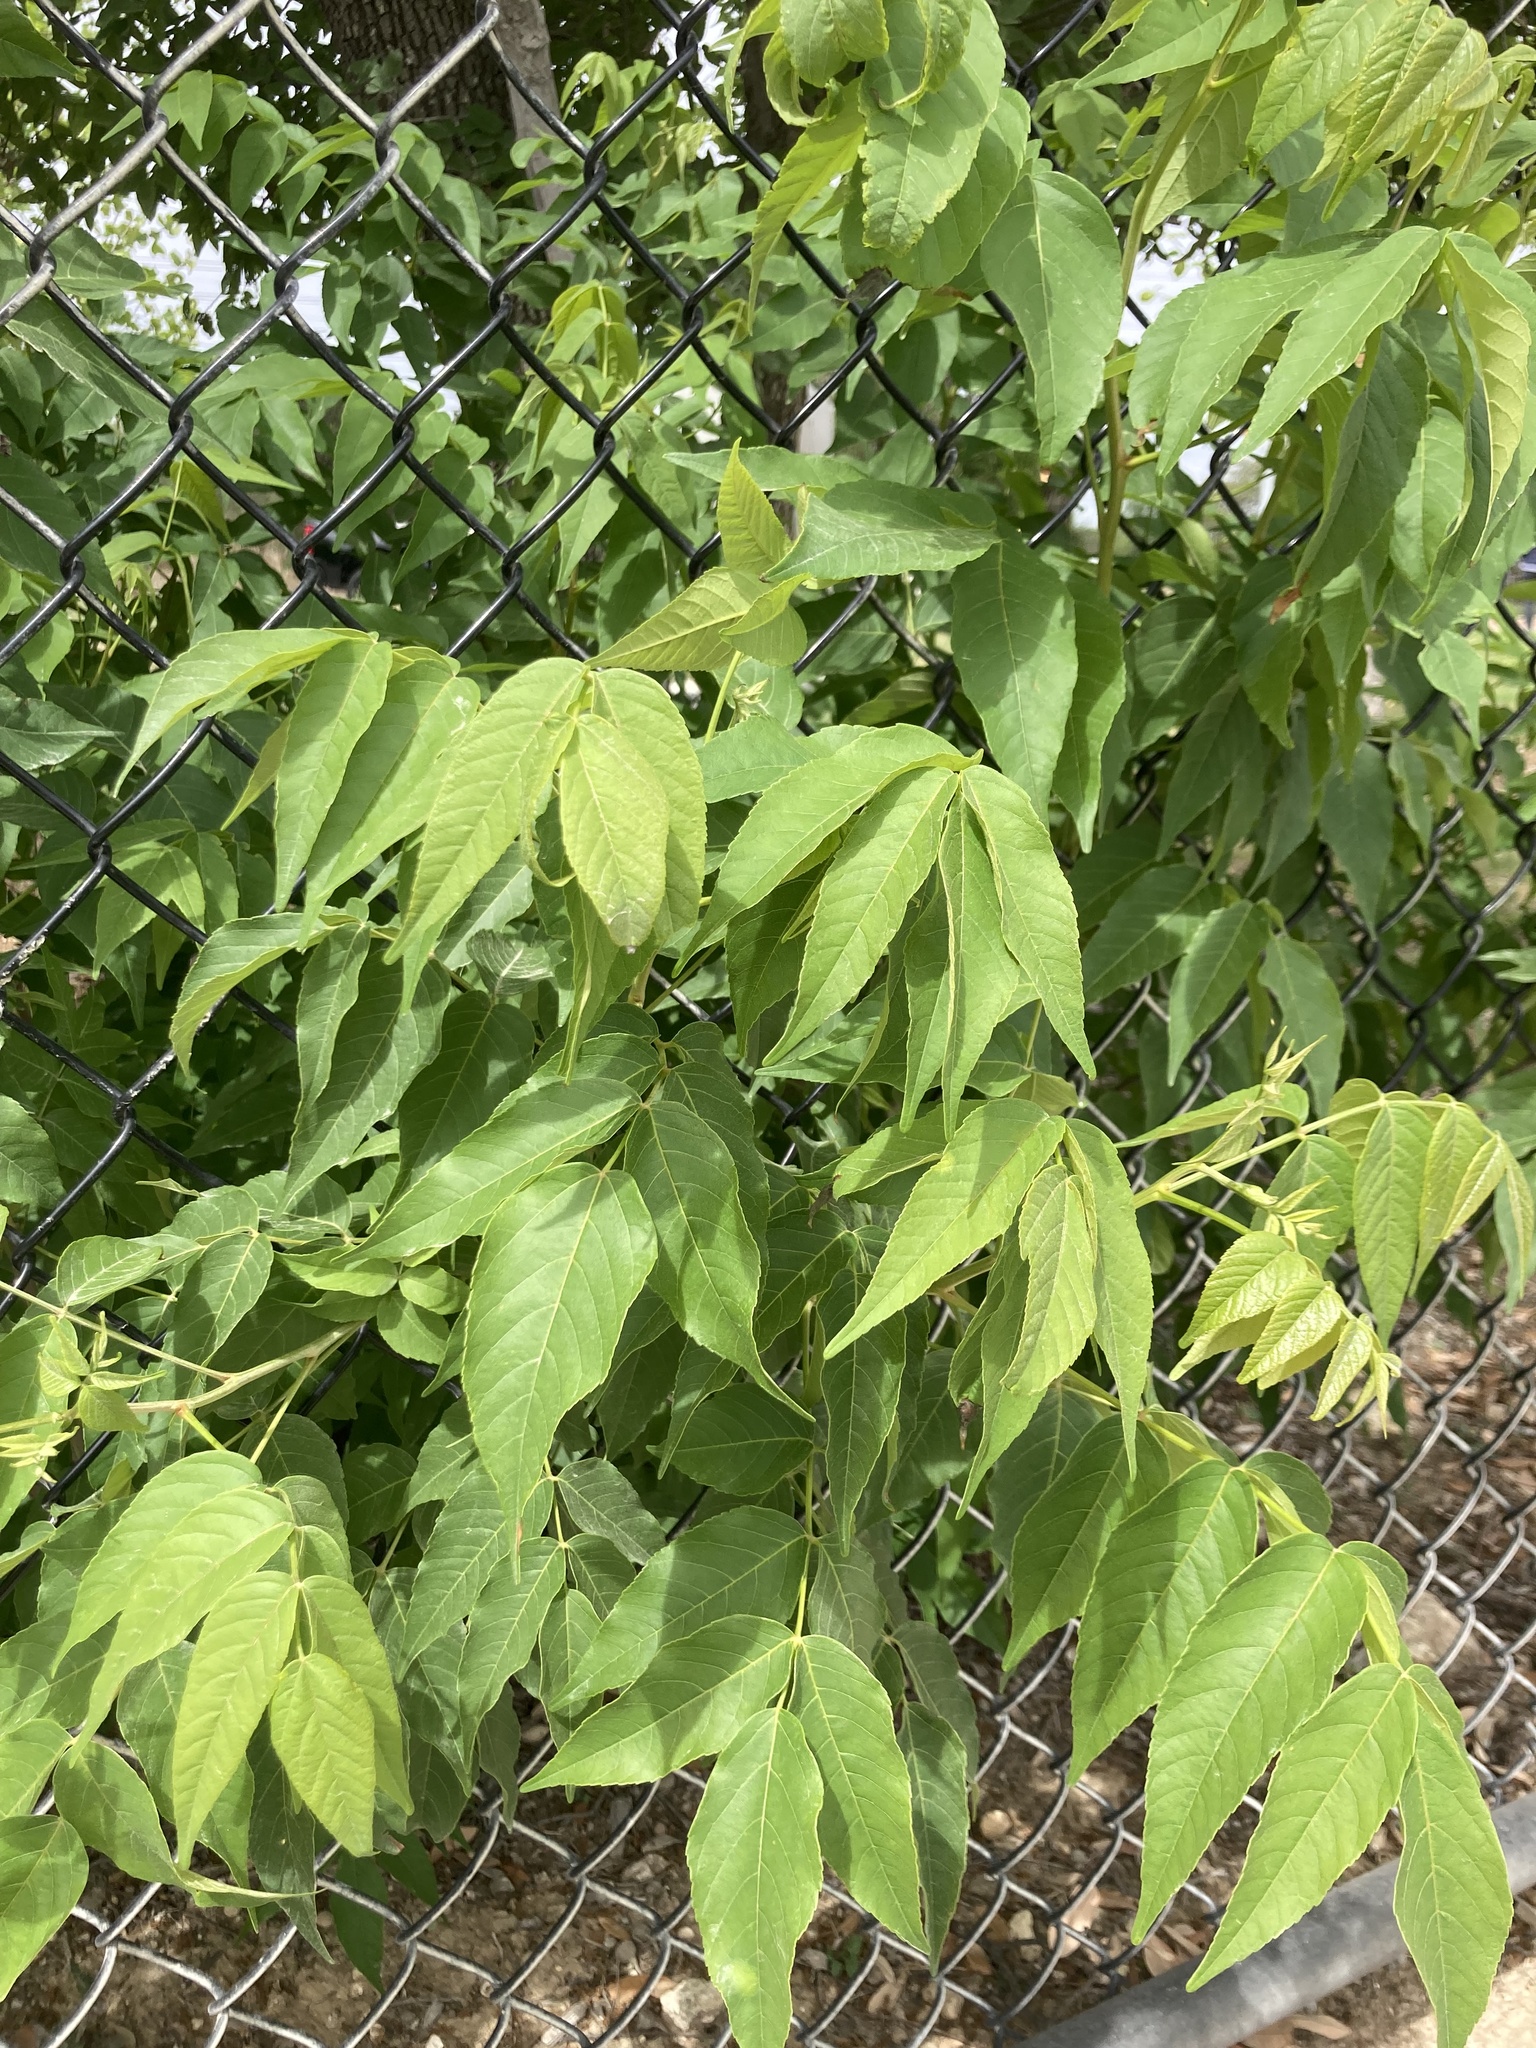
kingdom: Plantae
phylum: Tracheophyta
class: Magnoliopsida
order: Sapindales
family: Sapindaceae
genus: Ungnadia
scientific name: Ungnadia speciosa
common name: Texas-buckeye
